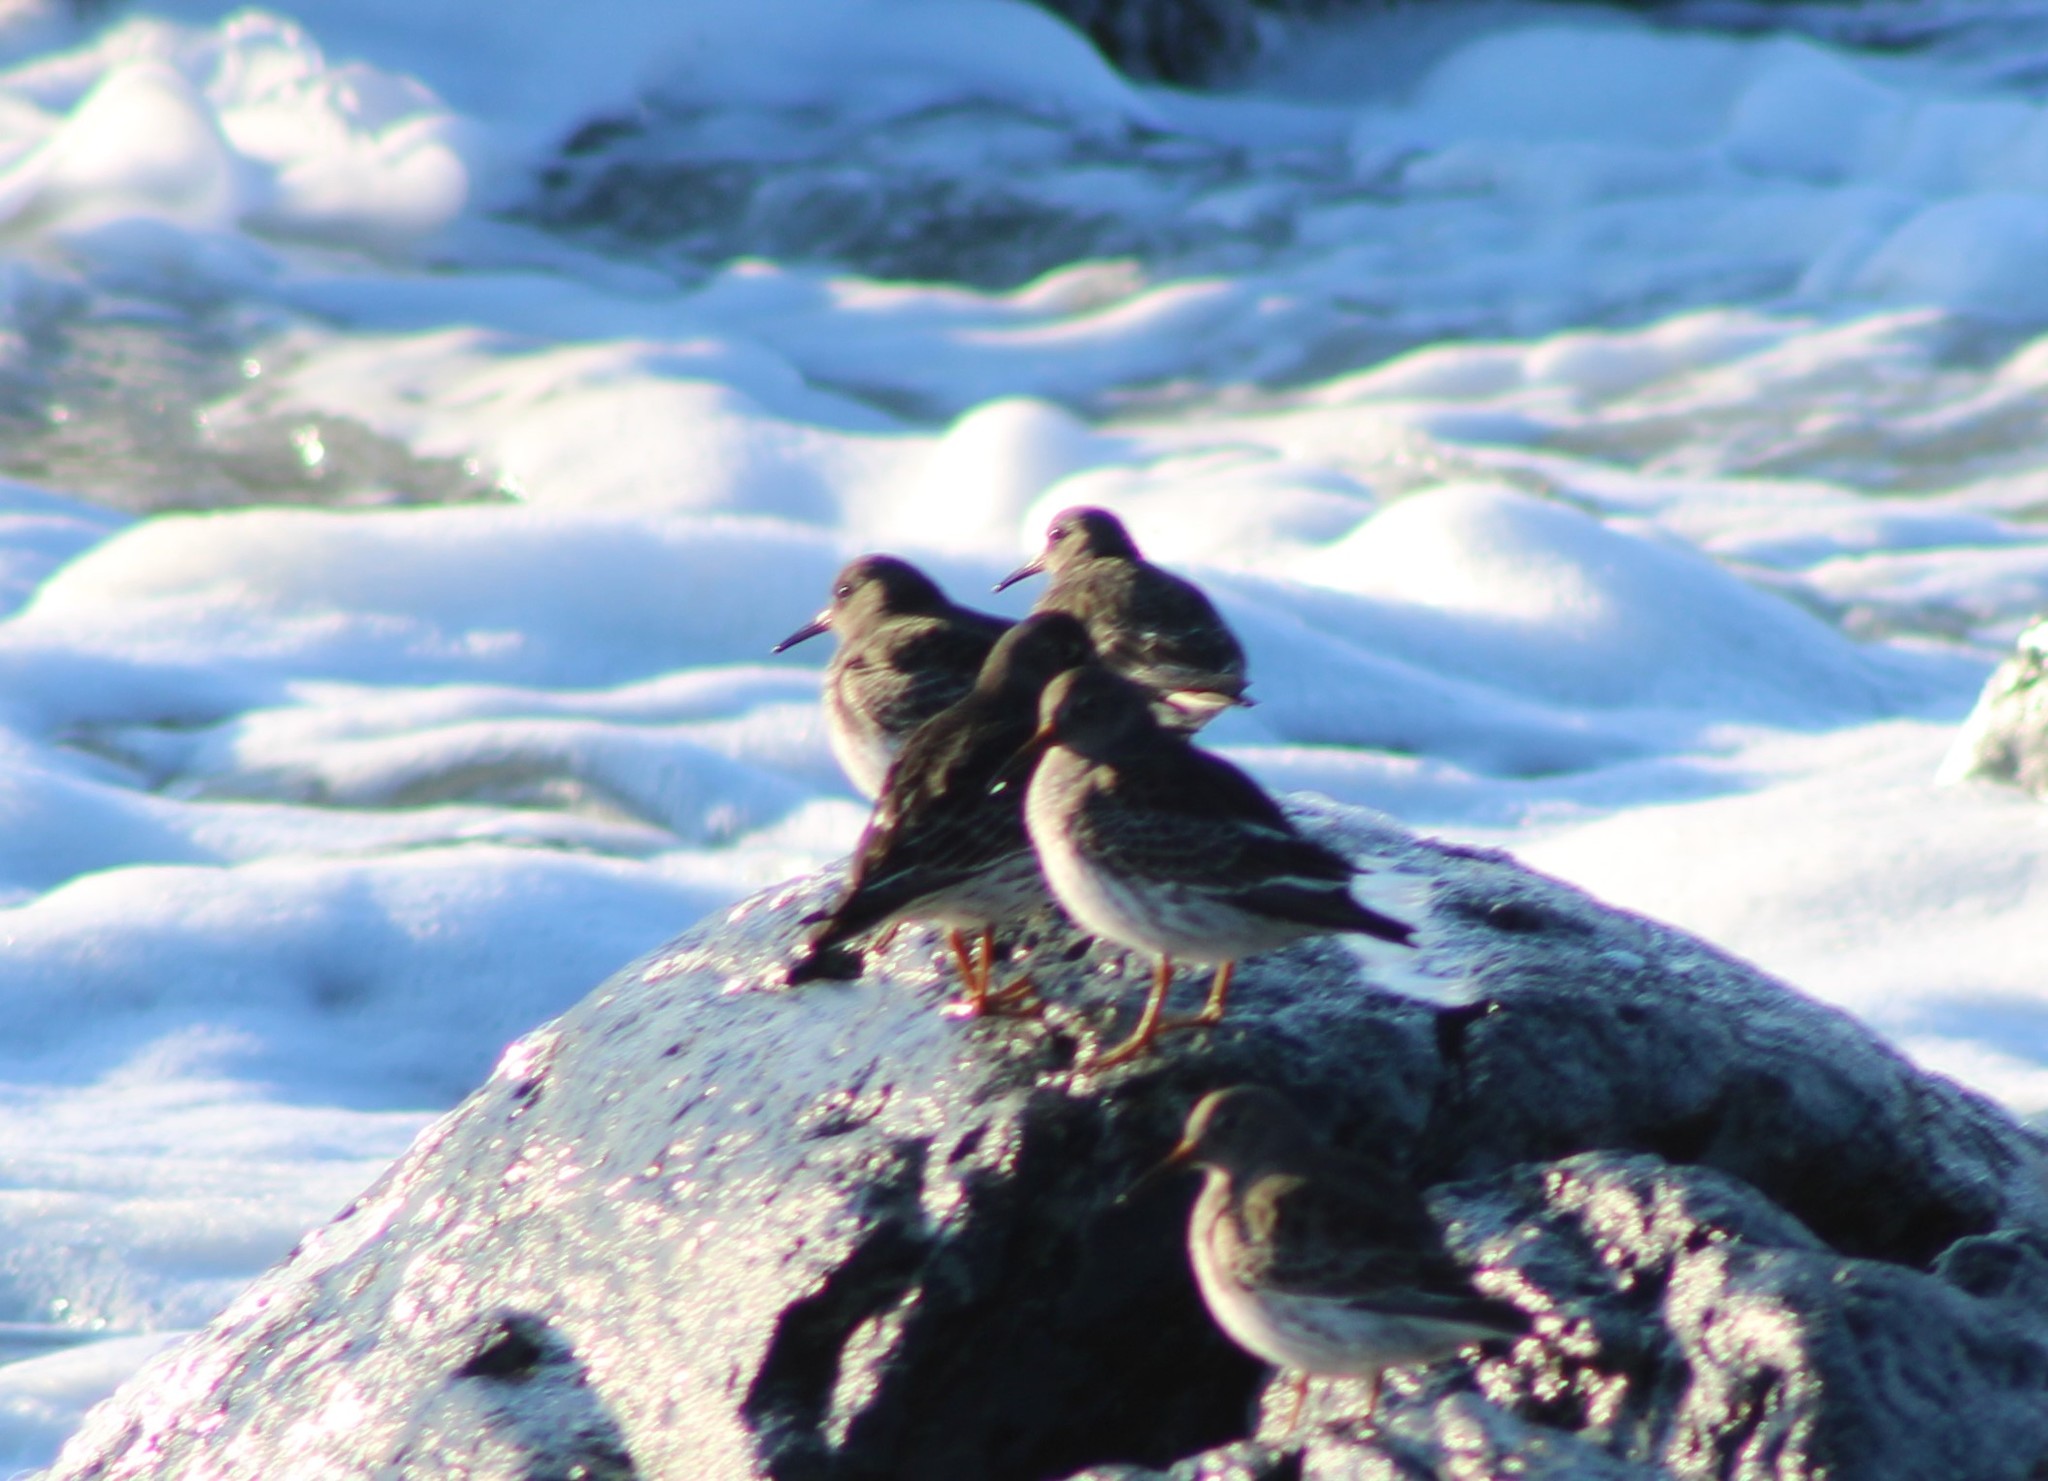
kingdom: Animalia
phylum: Chordata
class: Aves
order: Charadriiformes
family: Scolopacidae
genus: Calidris
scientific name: Calidris maritima
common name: Purple sandpiper
